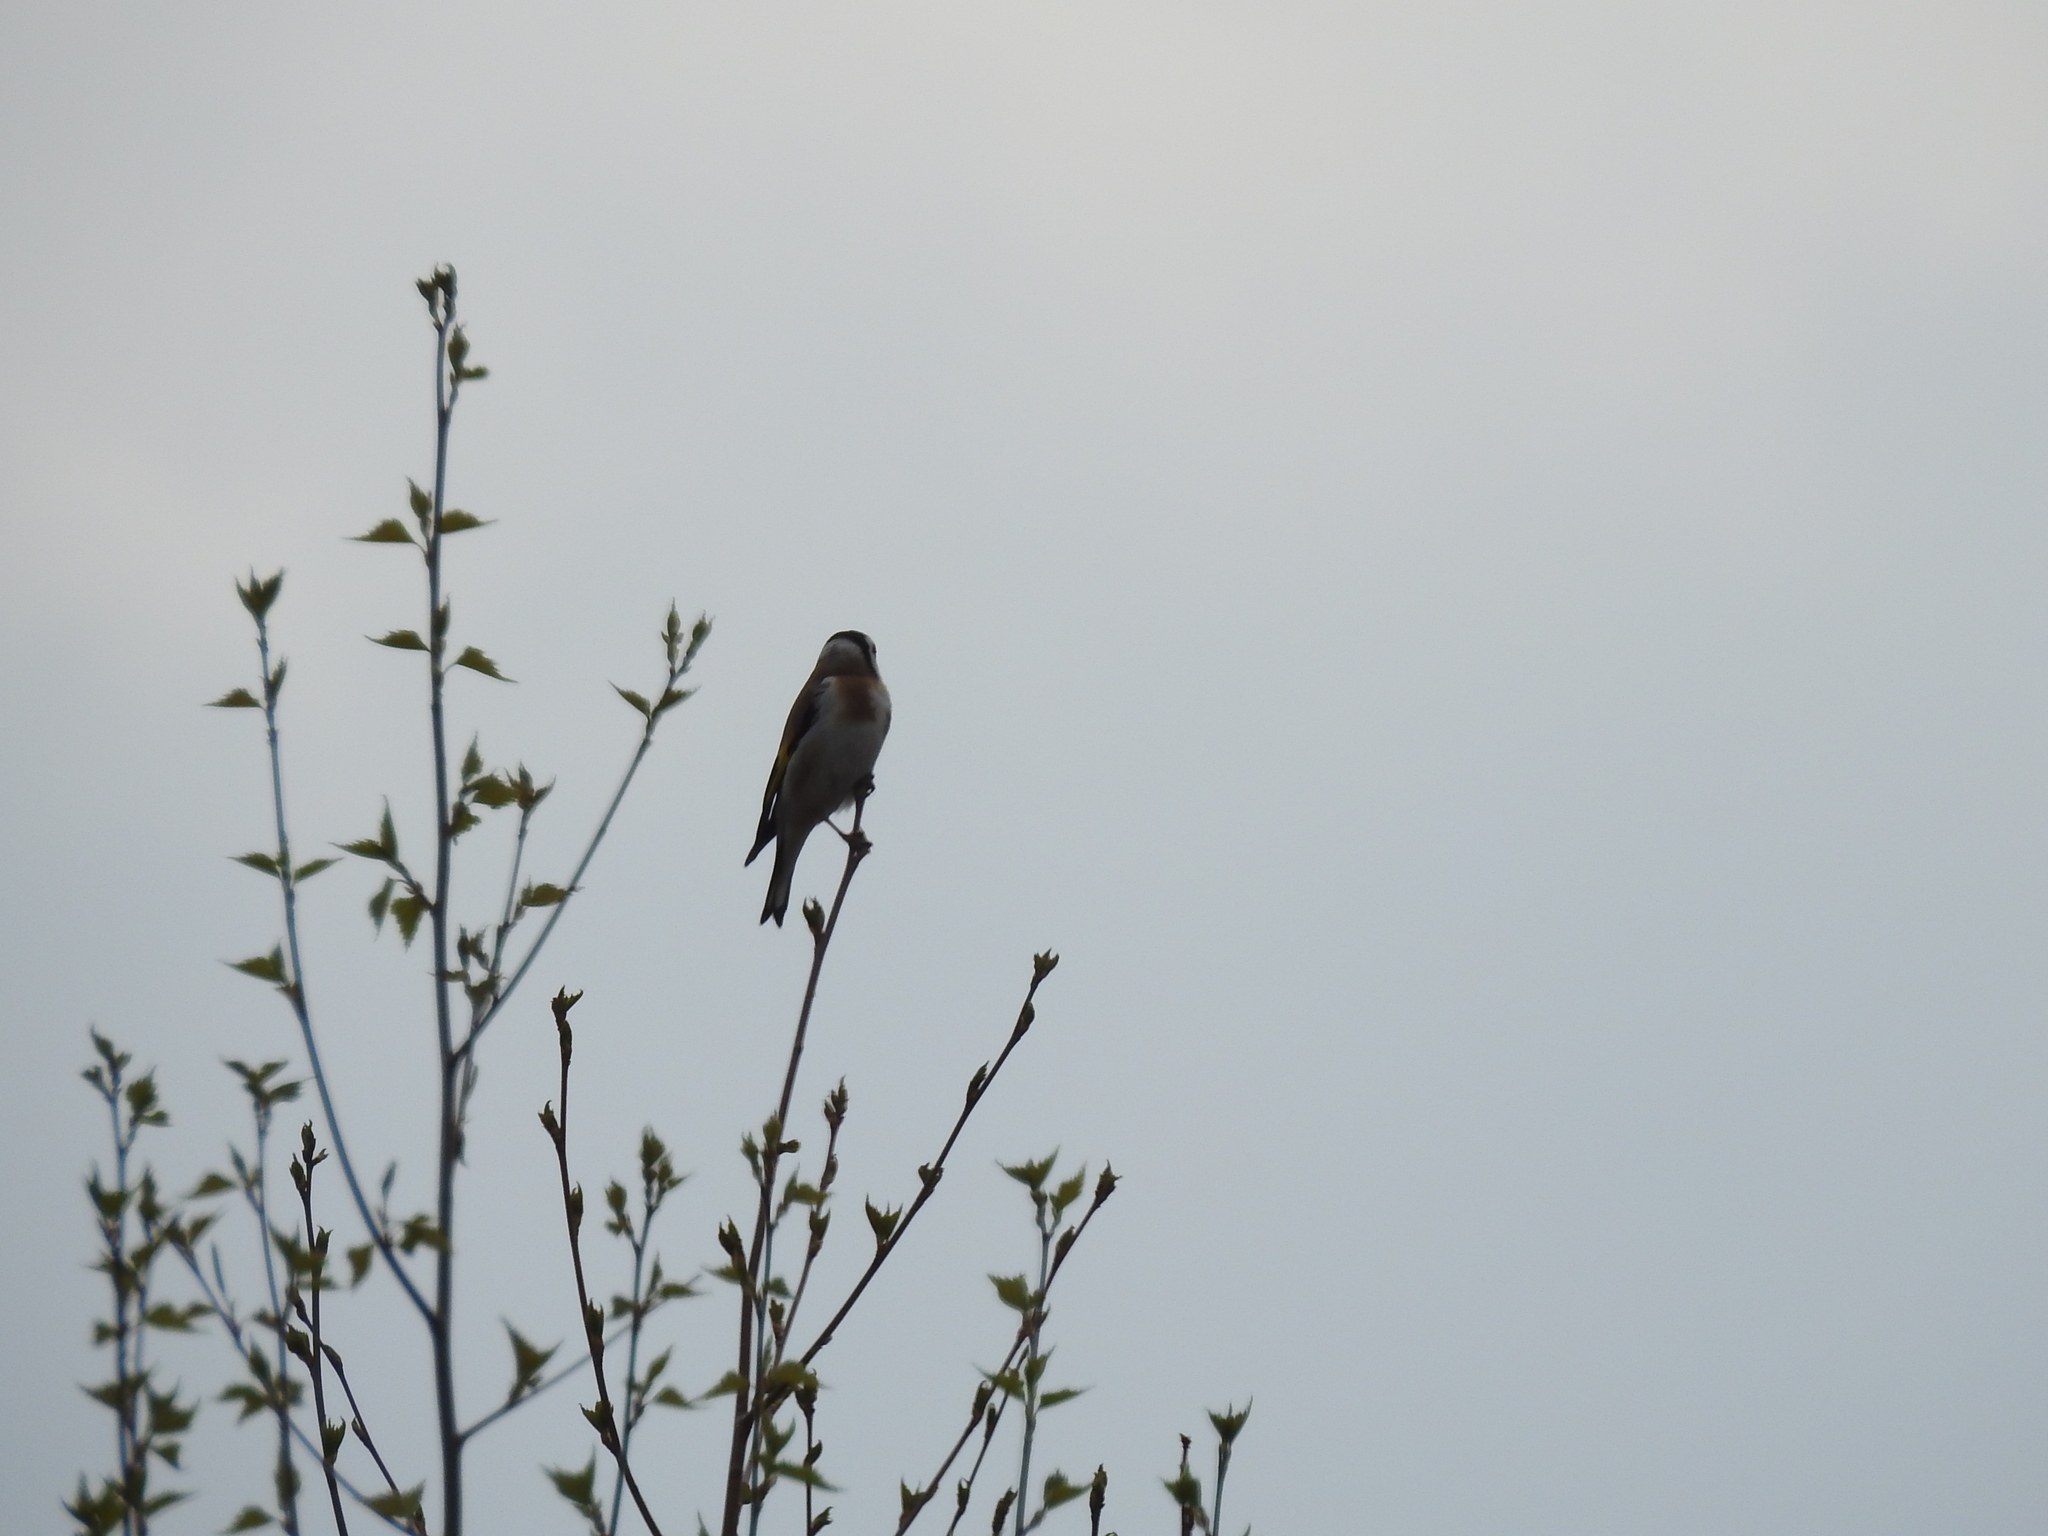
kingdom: Animalia
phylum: Chordata
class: Aves
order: Passeriformes
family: Fringillidae
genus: Carduelis
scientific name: Carduelis carduelis
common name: European goldfinch
